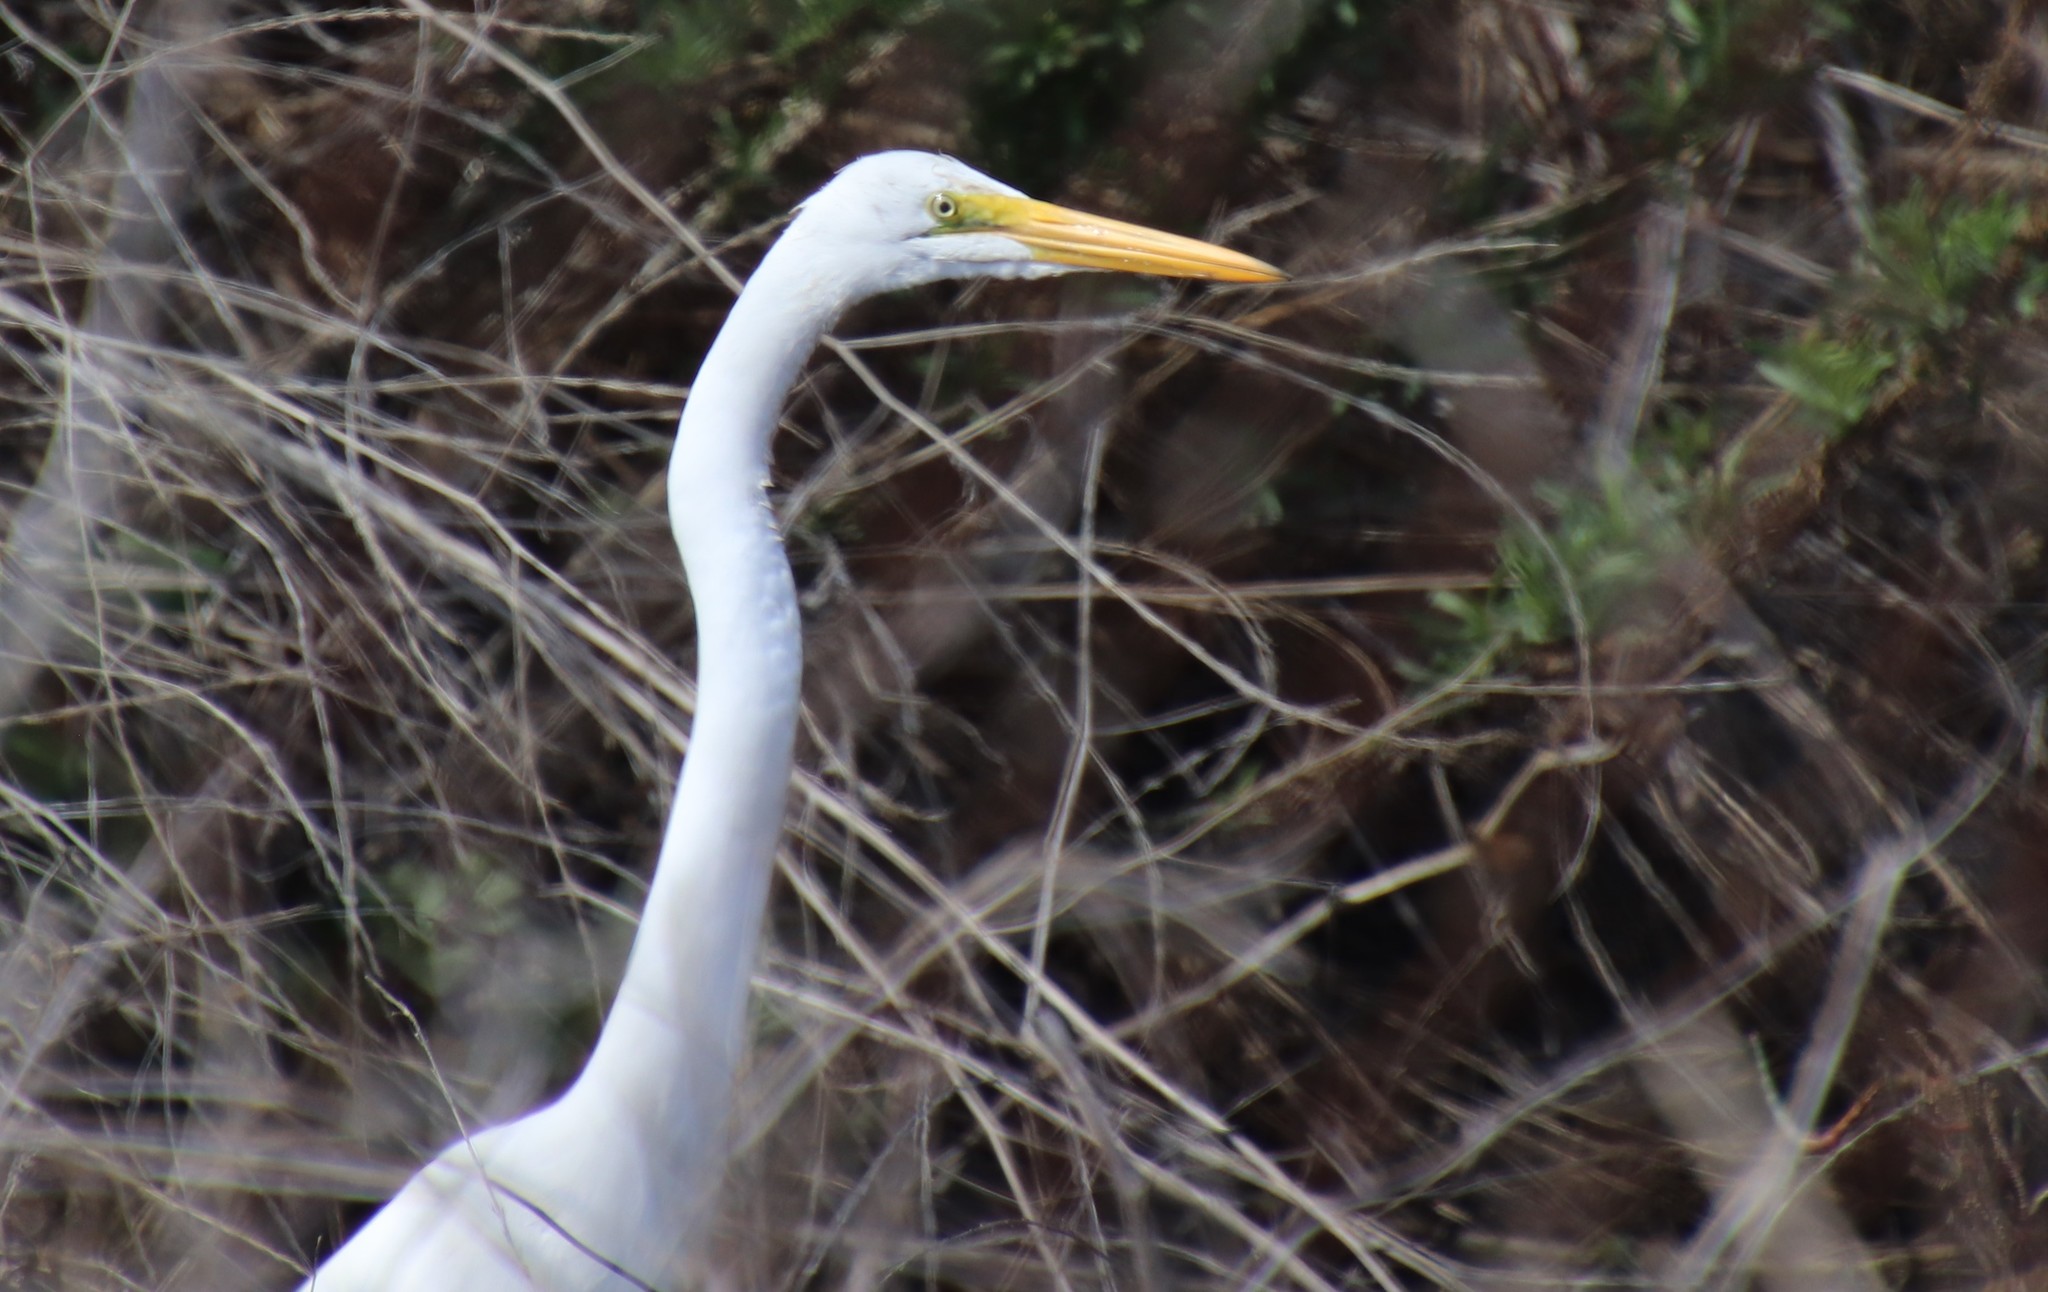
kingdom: Animalia
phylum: Chordata
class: Aves
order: Pelecaniformes
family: Ardeidae
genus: Ardea
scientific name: Ardea alba
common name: Great egret
